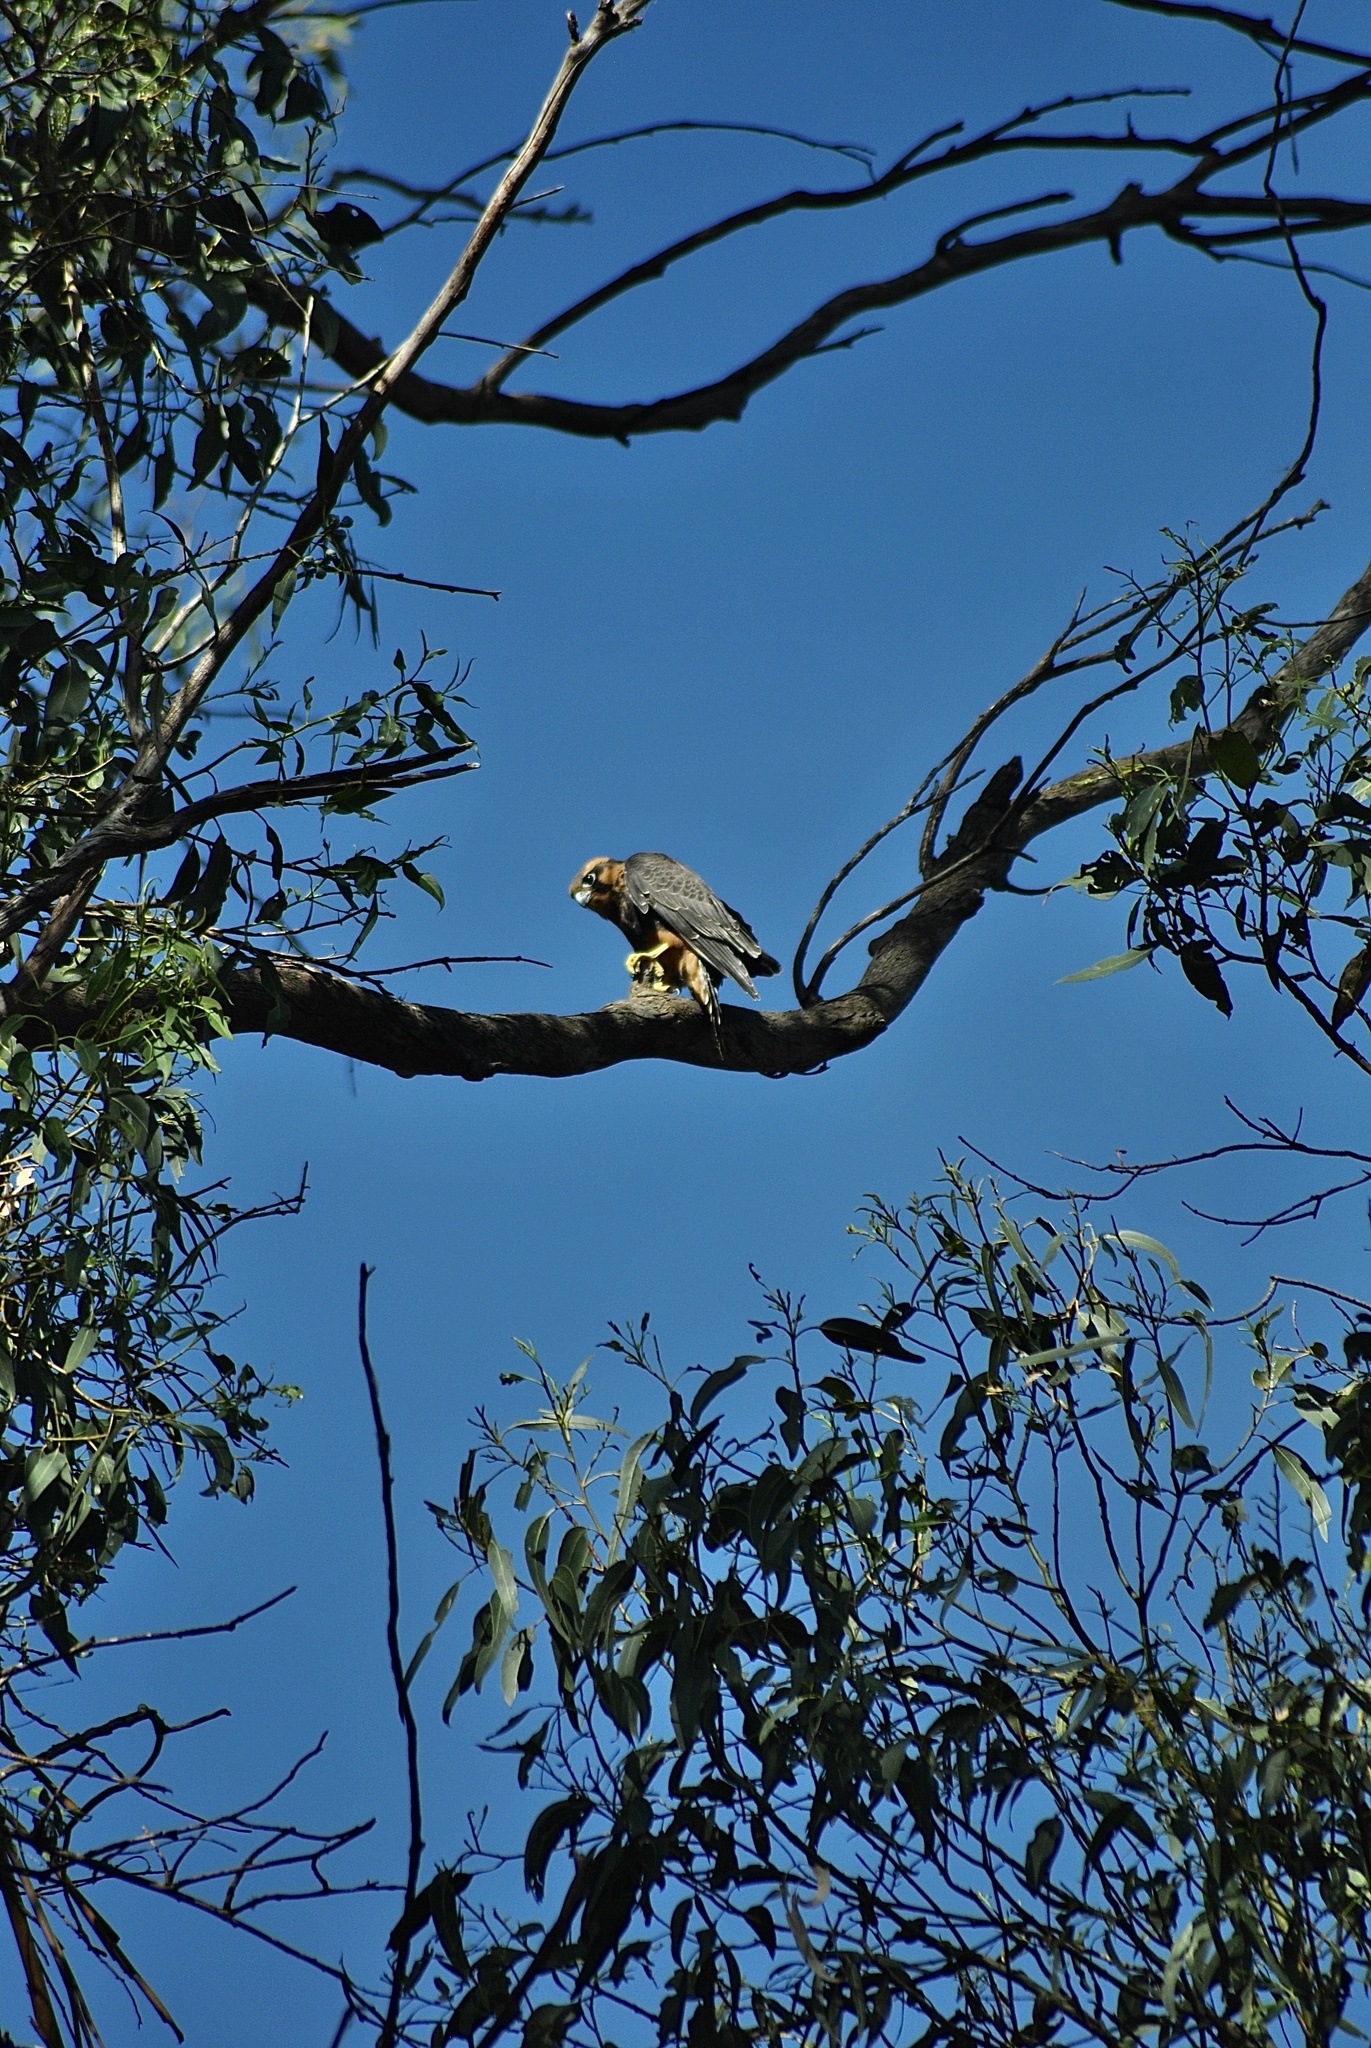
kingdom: Animalia
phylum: Chordata
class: Aves
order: Falconiformes
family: Falconidae
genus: Falco
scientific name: Falco femoralis
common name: Aplomado falcon
